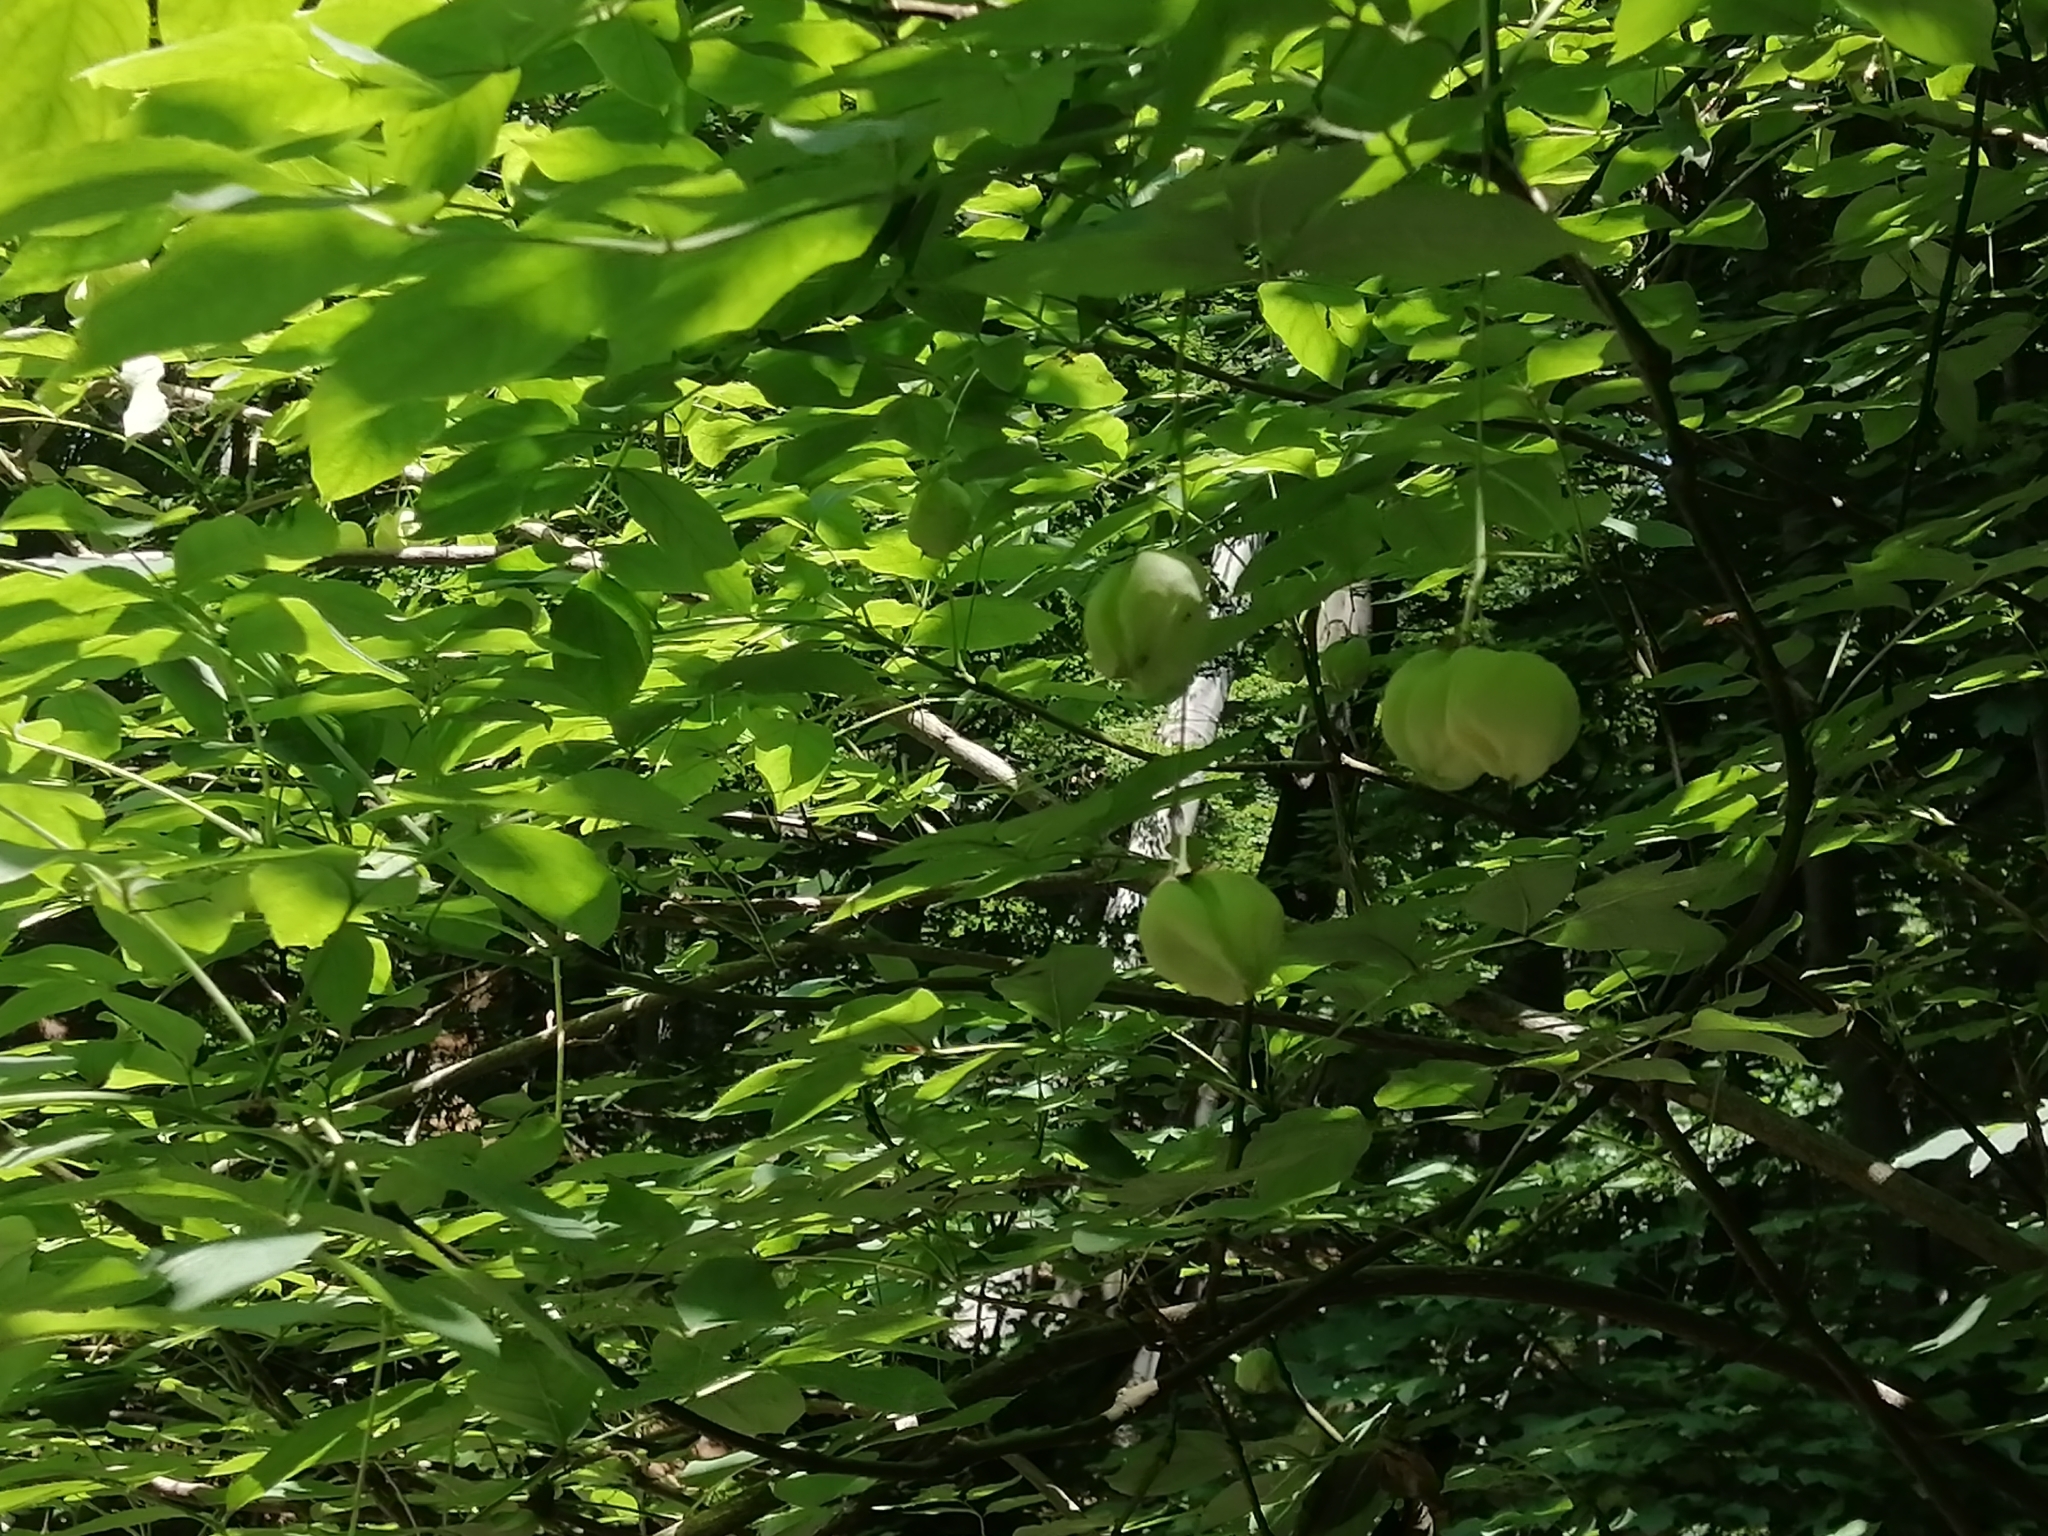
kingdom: Plantae
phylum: Tracheophyta
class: Magnoliopsida
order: Crossosomatales
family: Staphyleaceae
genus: Staphylea
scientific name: Staphylea pinnata
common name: Bladdernut
